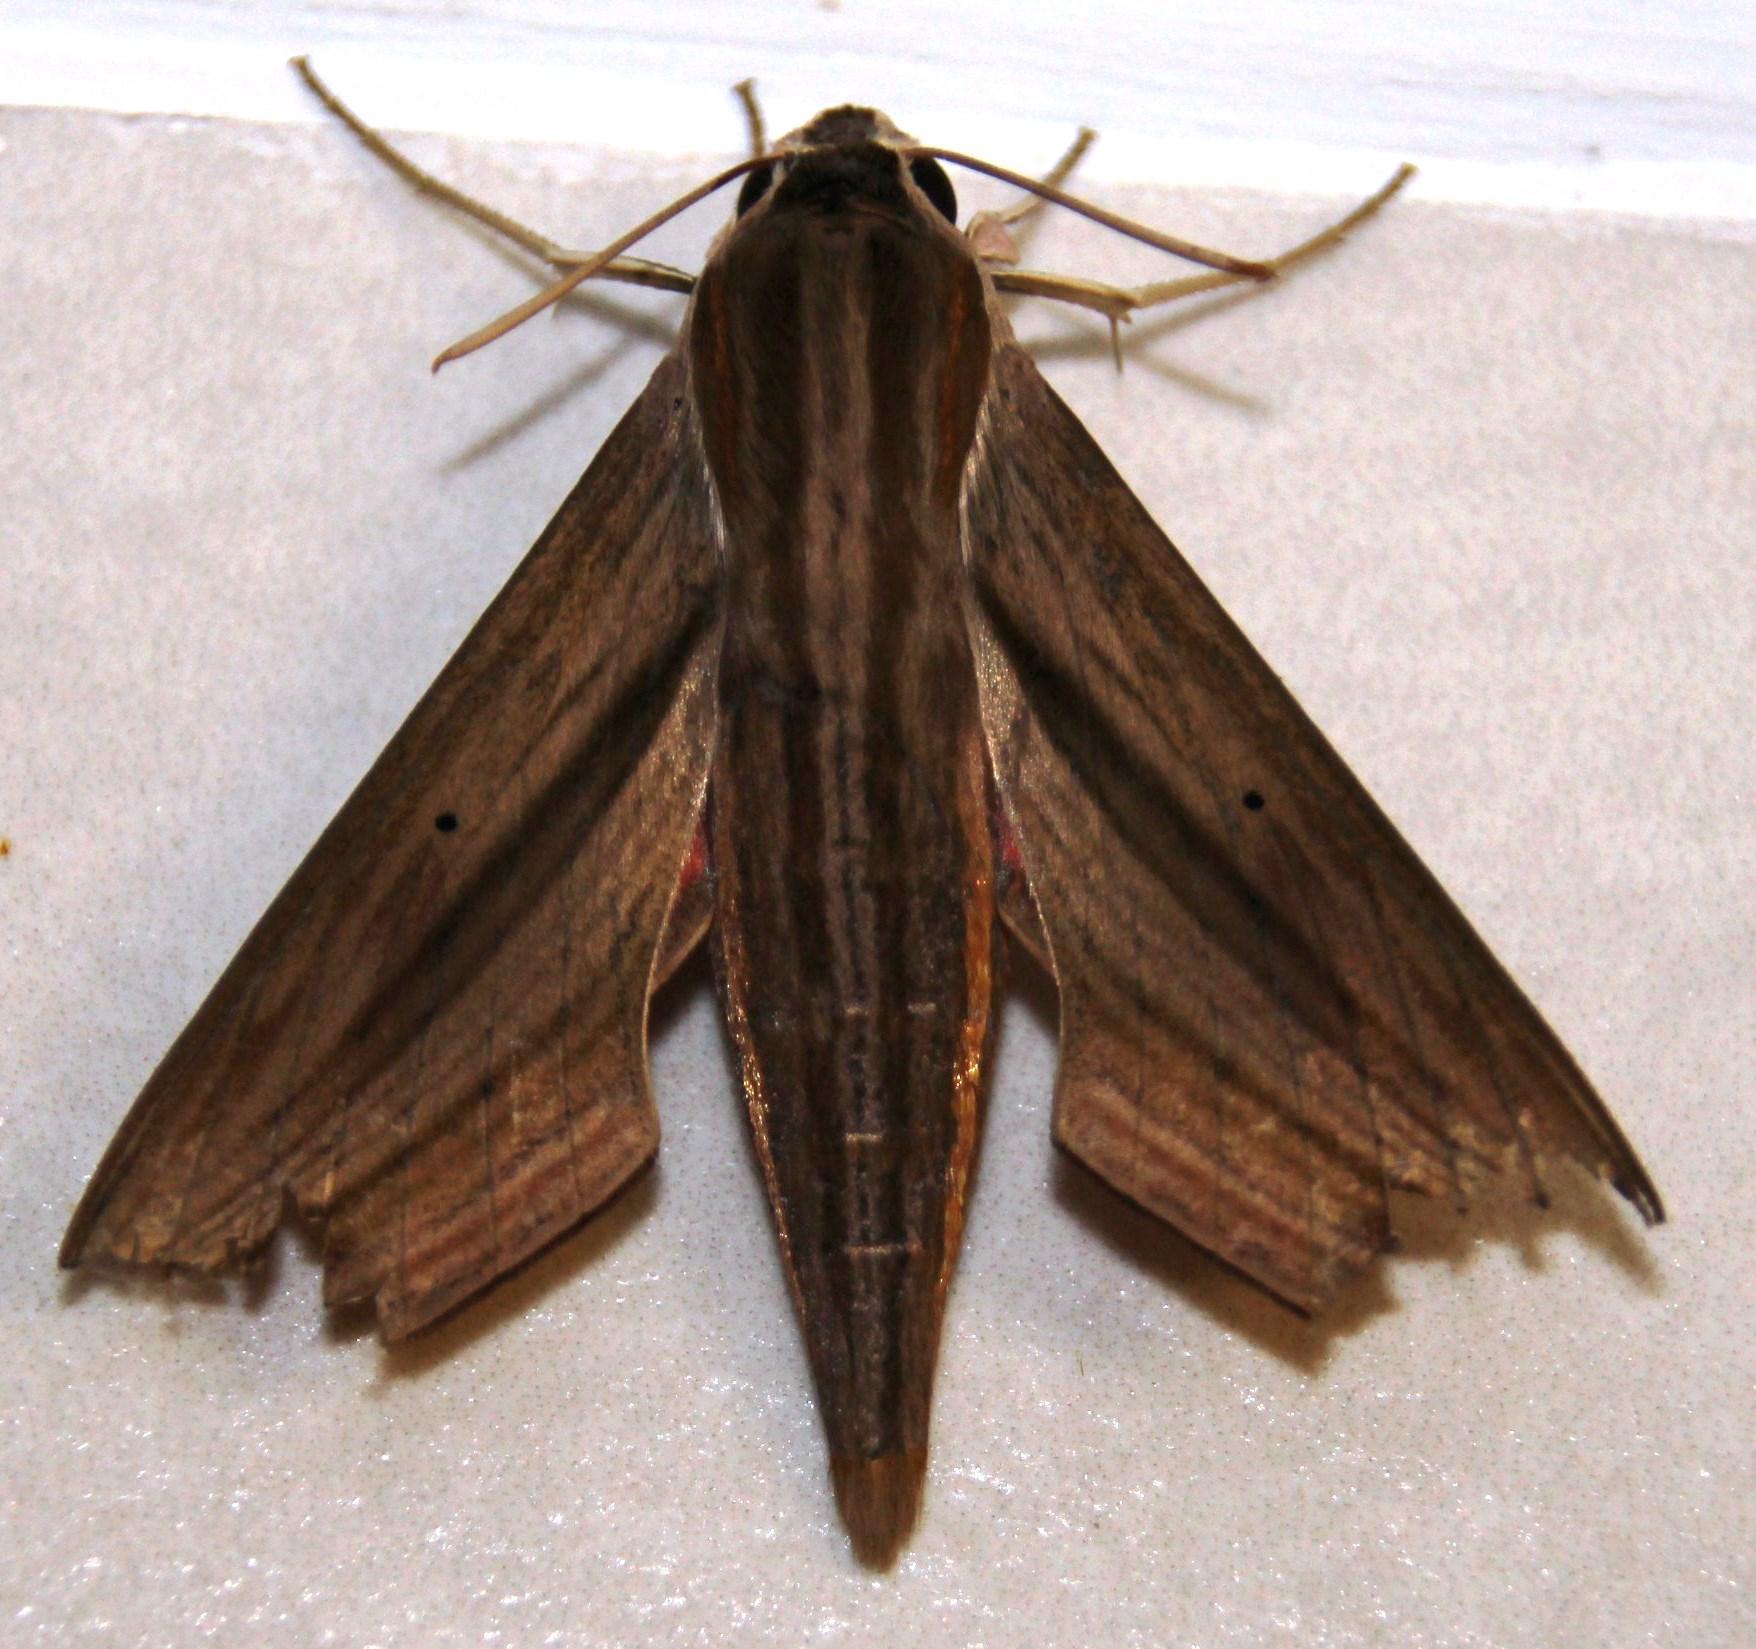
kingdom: Animalia
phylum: Arthropoda
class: Insecta
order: Lepidoptera
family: Sphingidae
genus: Hippotion
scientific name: Hippotion eson
